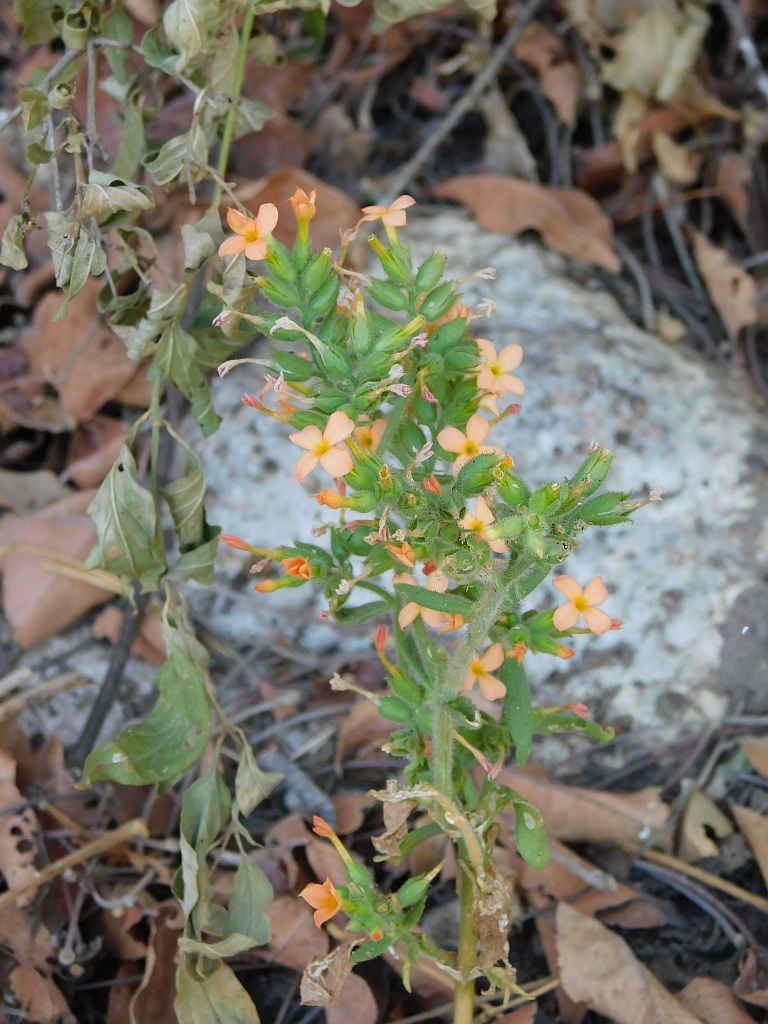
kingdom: Plantae
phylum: Tracheophyta
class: Magnoliopsida
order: Saxifragales
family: Crassulaceae
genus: Kalanchoe
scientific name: Kalanchoe lanceolata
